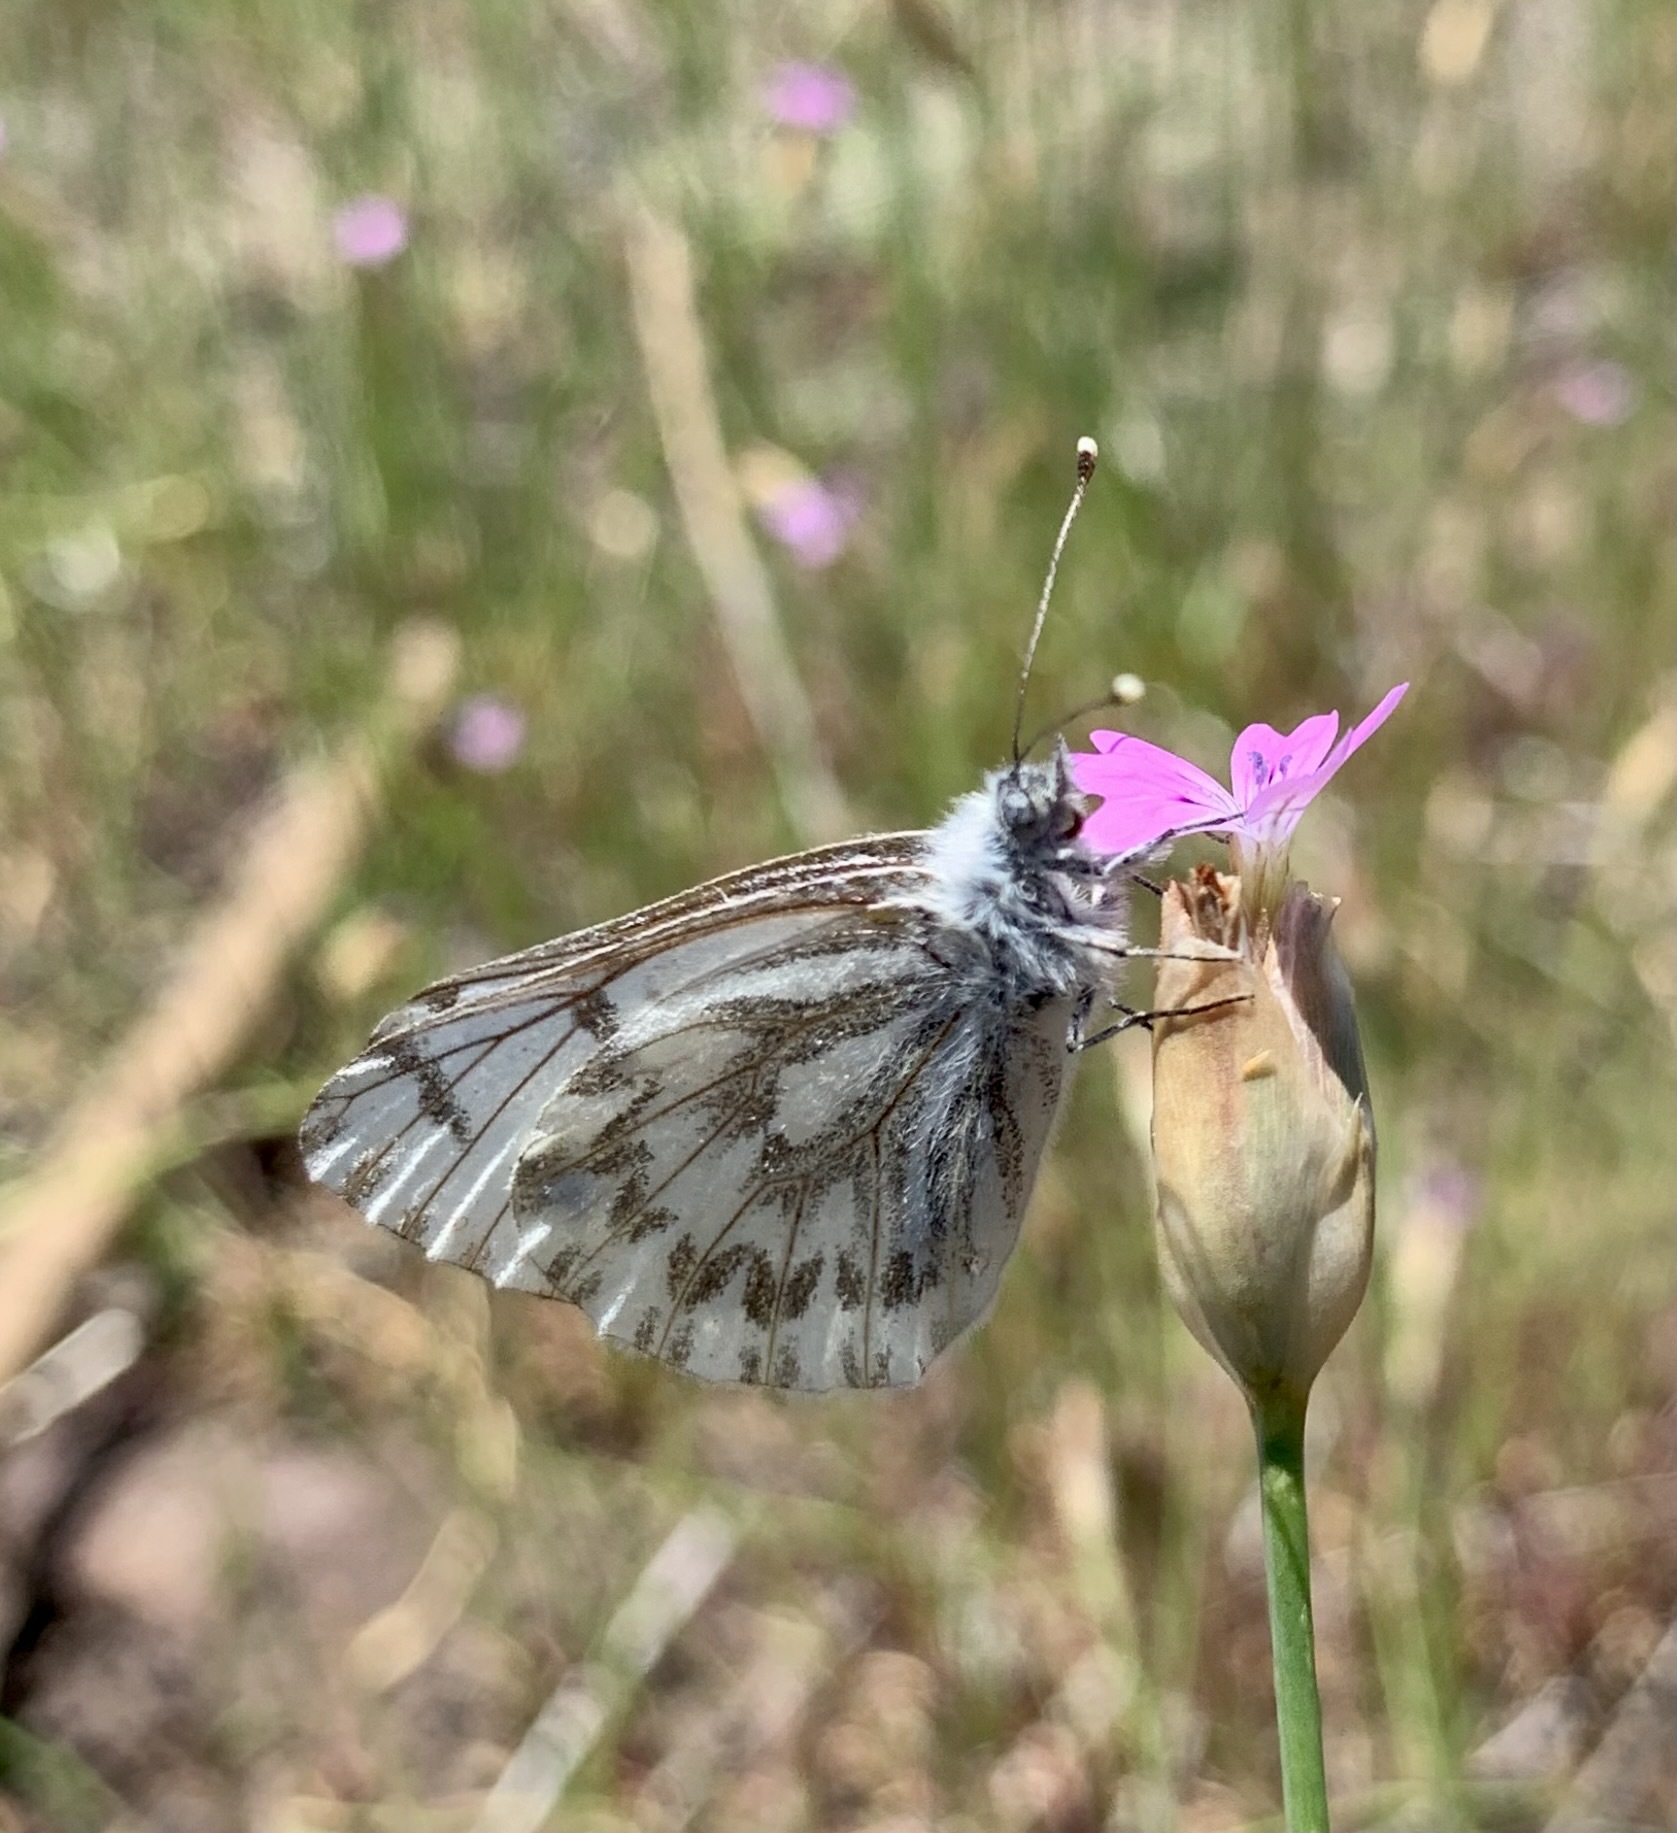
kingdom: Animalia
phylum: Arthropoda
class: Insecta
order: Lepidoptera
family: Pieridae
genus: Pontia
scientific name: Pontia sisymbrii
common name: California white
